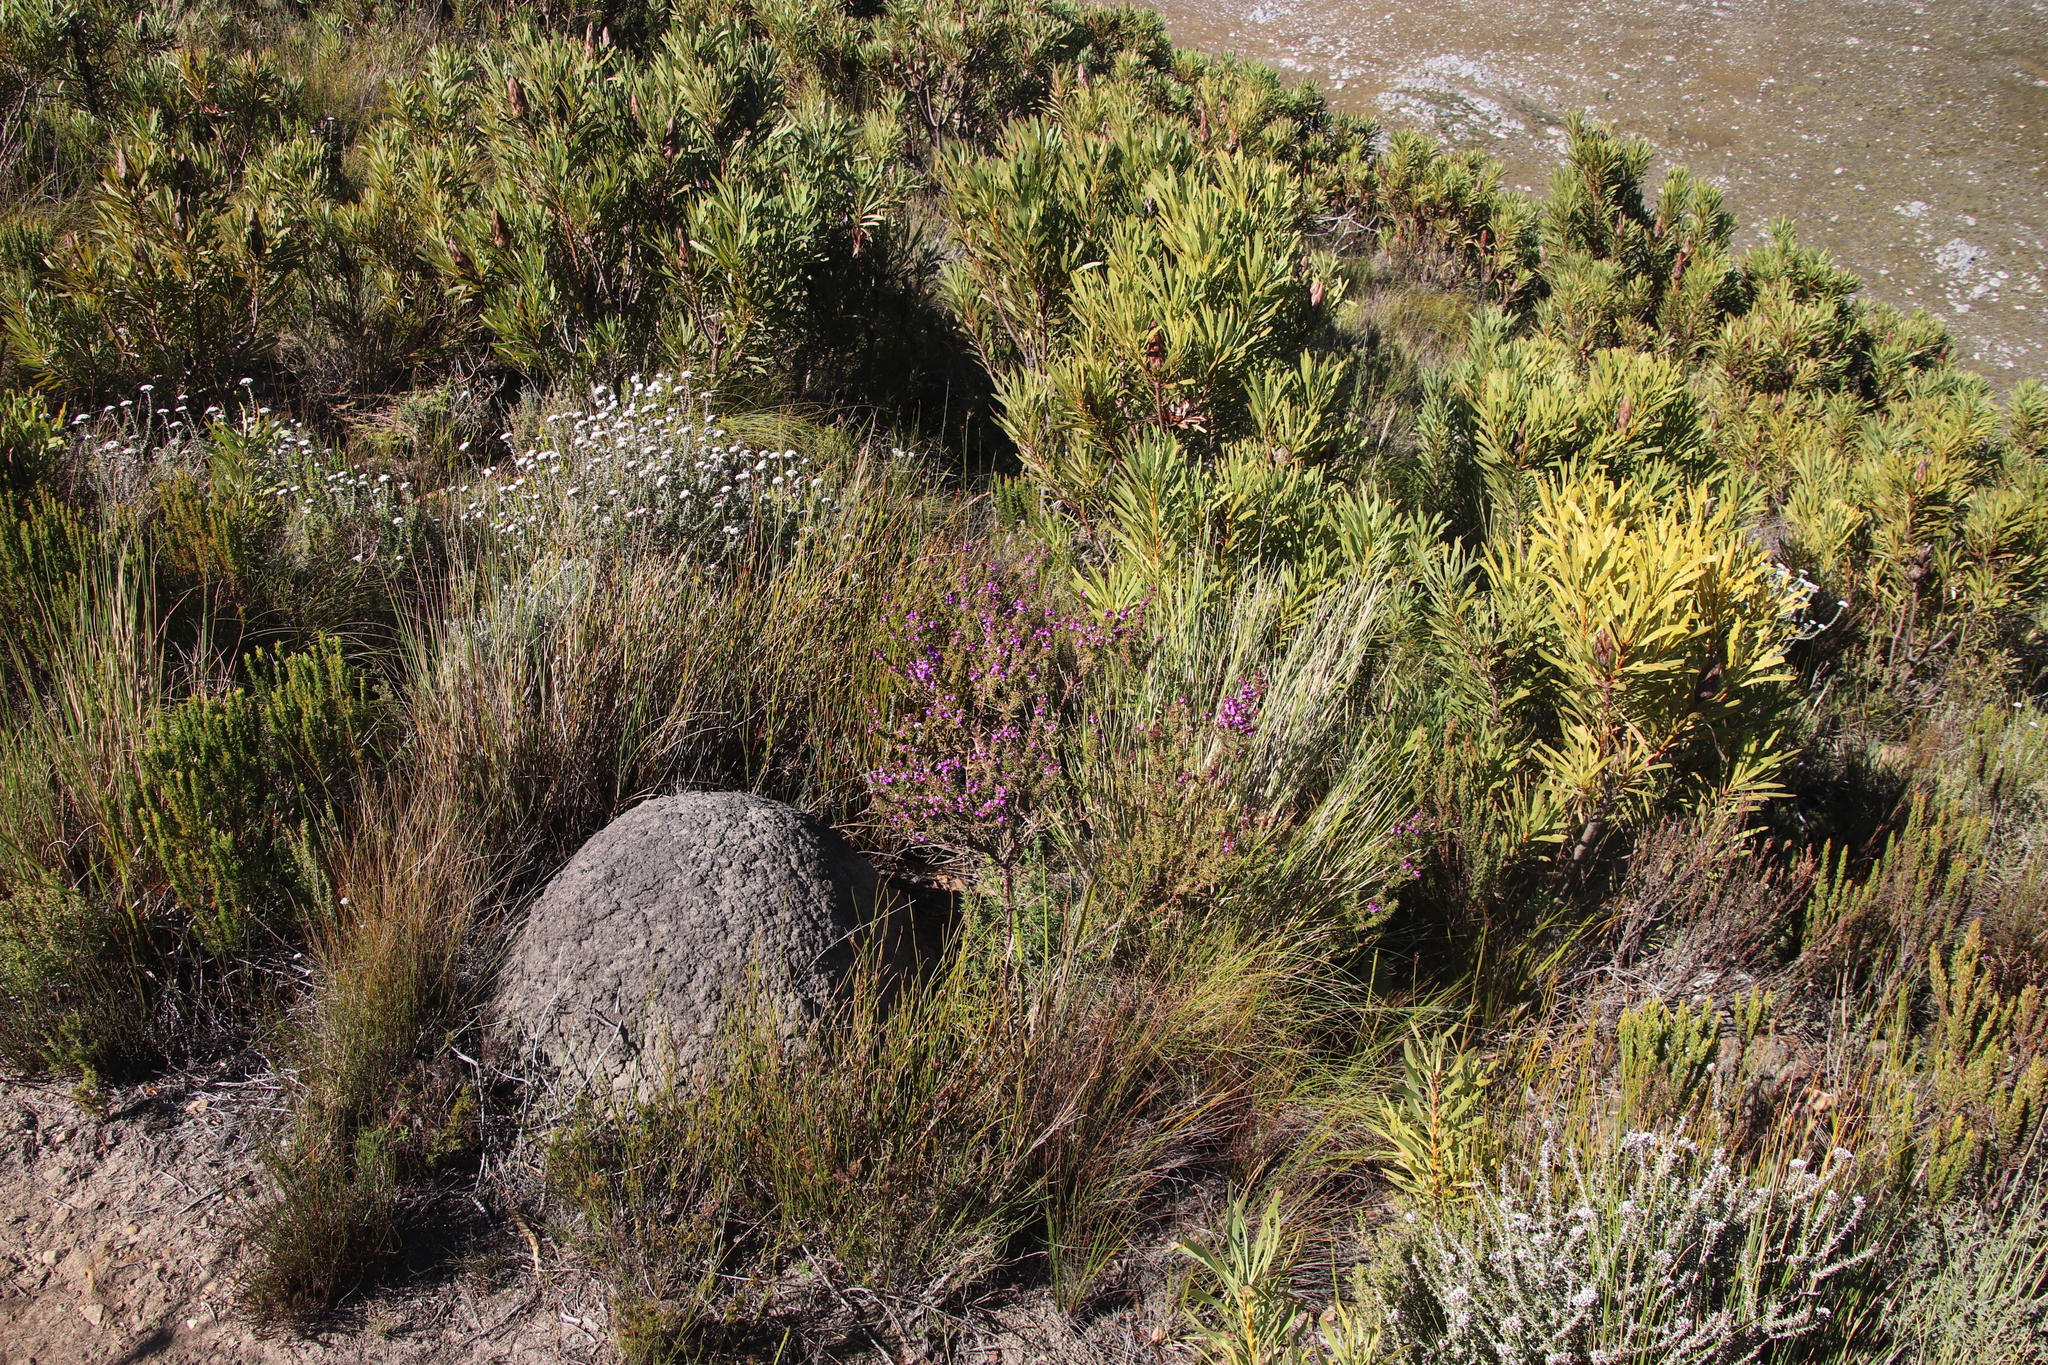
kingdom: Animalia
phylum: Arthropoda
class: Insecta
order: Blattodea
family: Termitidae
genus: Amitermes
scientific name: Amitermes hastatus
